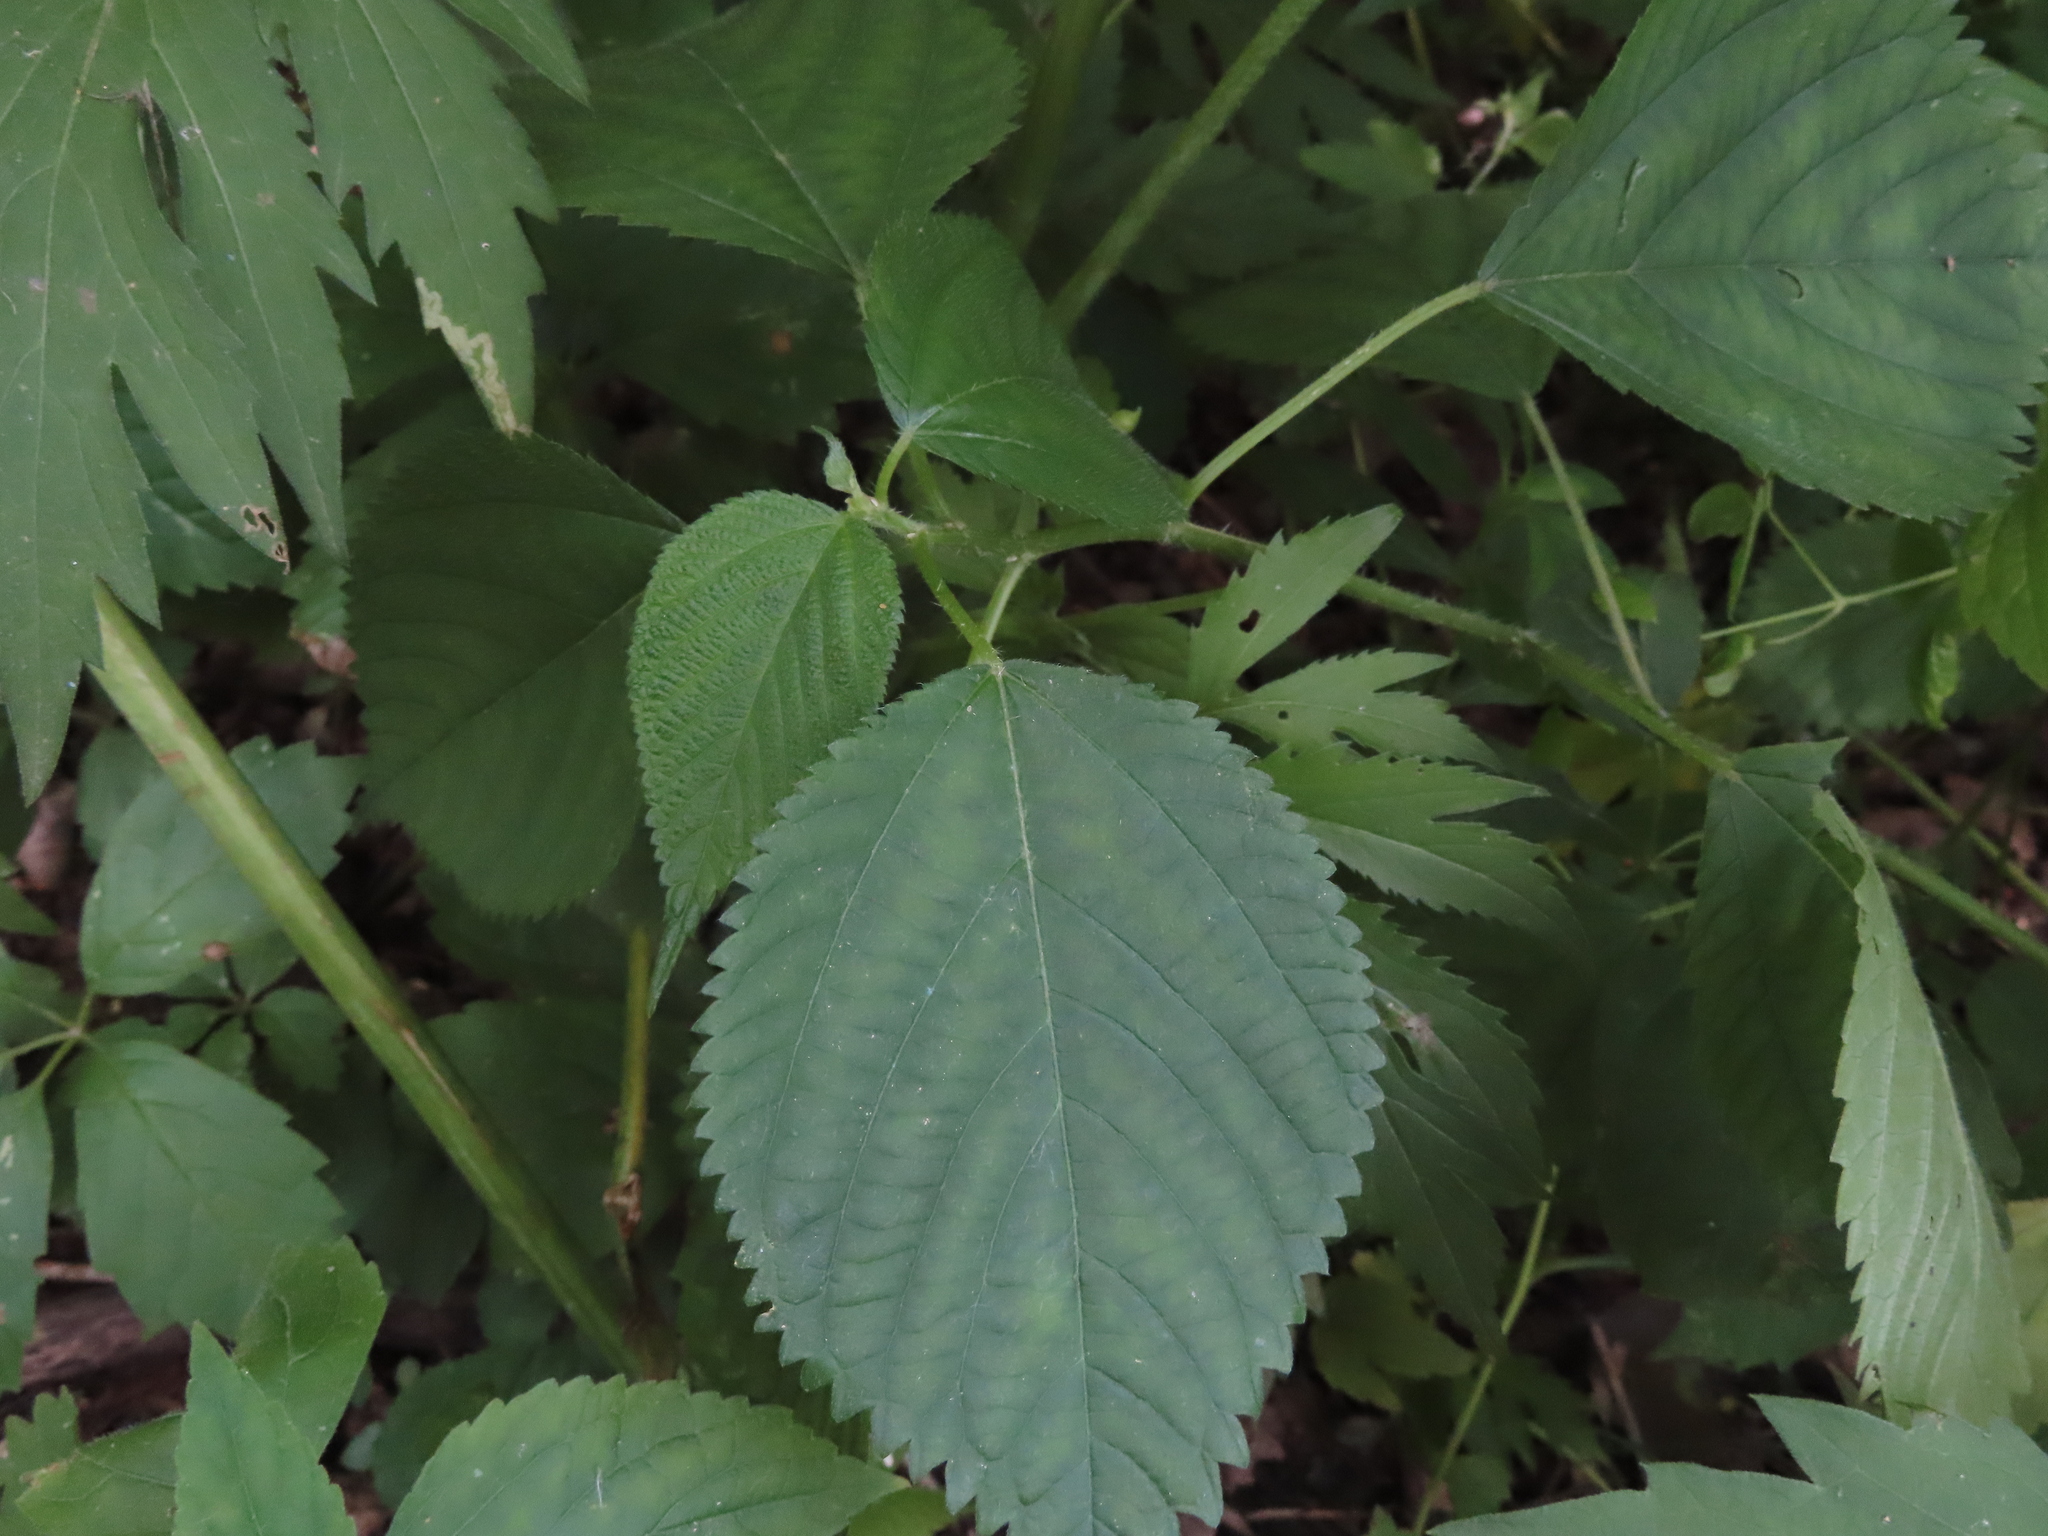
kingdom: Plantae
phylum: Tracheophyta
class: Magnoliopsida
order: Rosales
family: Urticaceae
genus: Laportea
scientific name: Laportea canadensis
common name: Canada nettle
